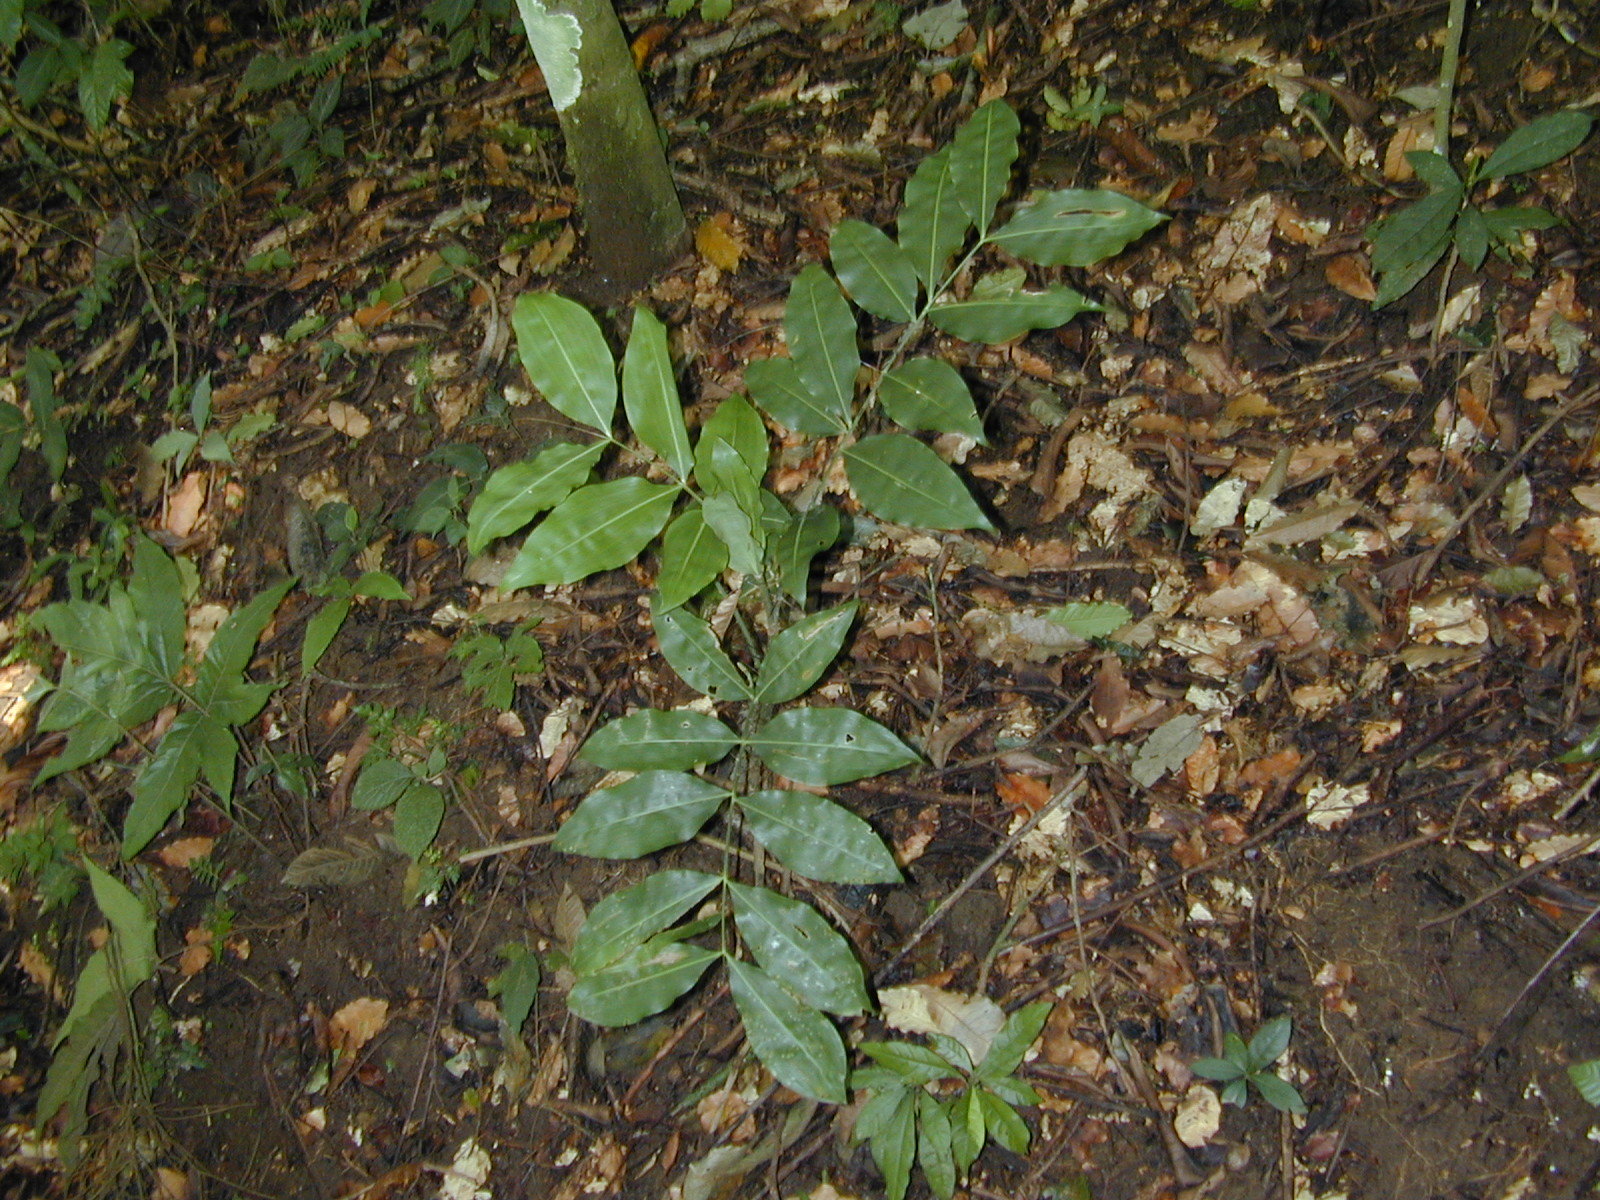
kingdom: Plantae
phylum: Tracheophyta
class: Liliopsida
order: Arecales
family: Arecaceae
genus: Desmoncus
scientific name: Desmoncus orthacanthos
